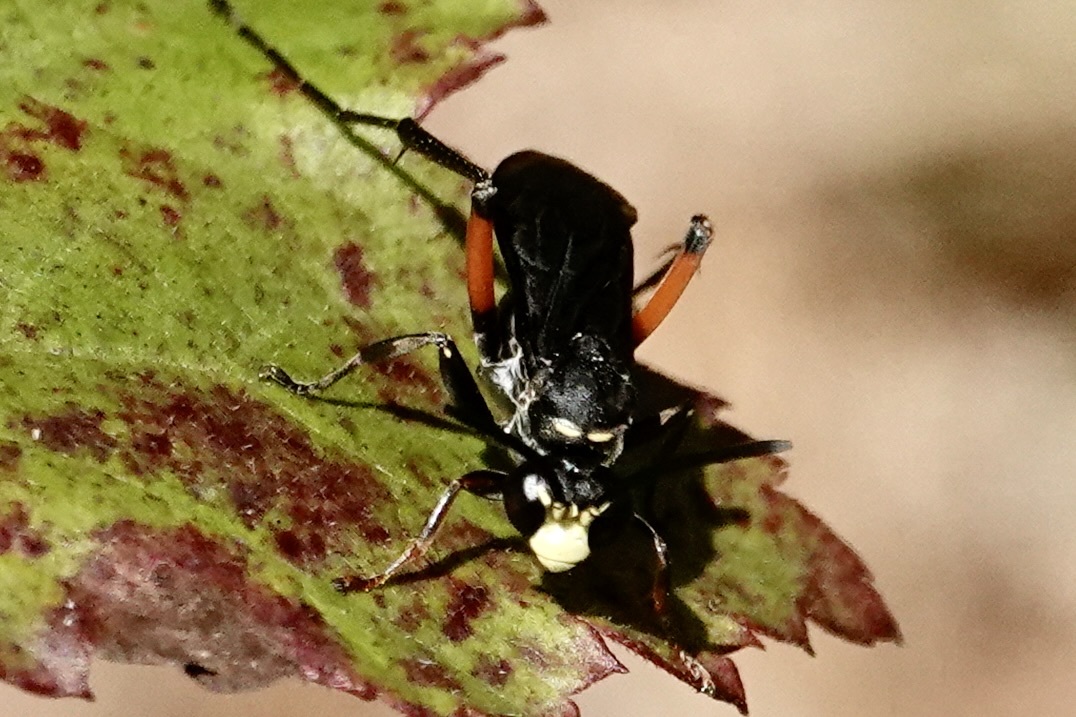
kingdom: Animalia
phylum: Arthropoda
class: Insecta
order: Hymenoptera
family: Pompilidae
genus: Ceropales
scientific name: Ceropales bipunctata
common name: Two-speckled cuckoo spider wasp
